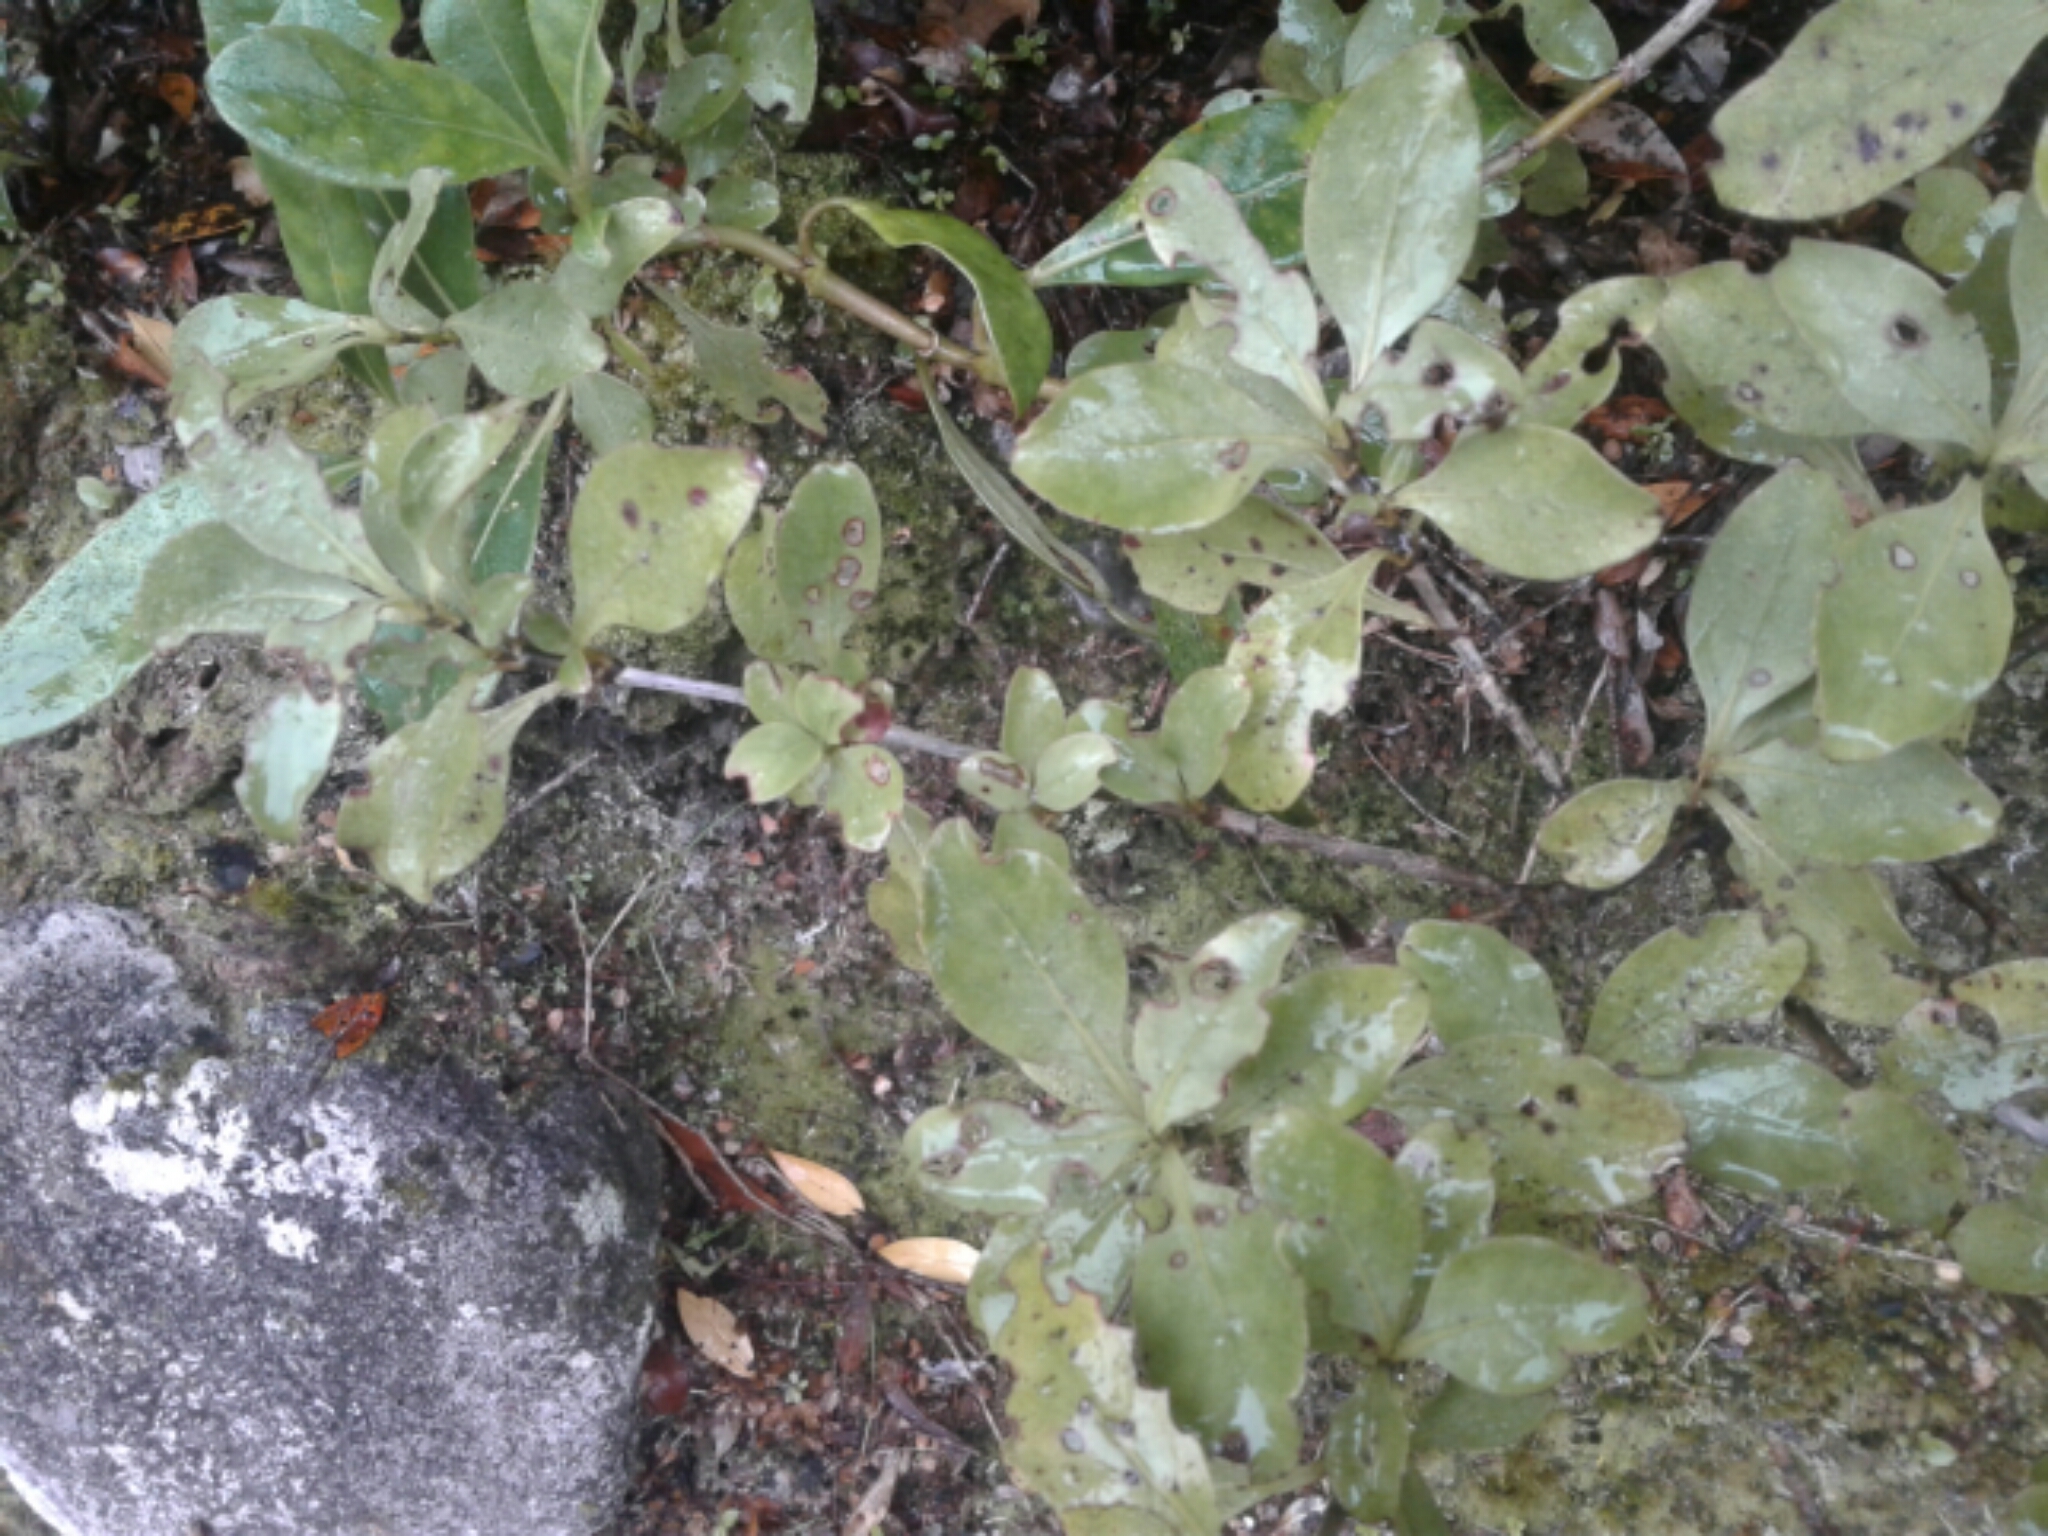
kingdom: Plantae
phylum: Tracheophyta
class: Magnoliopsida
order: Gentianales
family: Rubiaceae
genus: Coprosma
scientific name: Coprosma foetidissima
